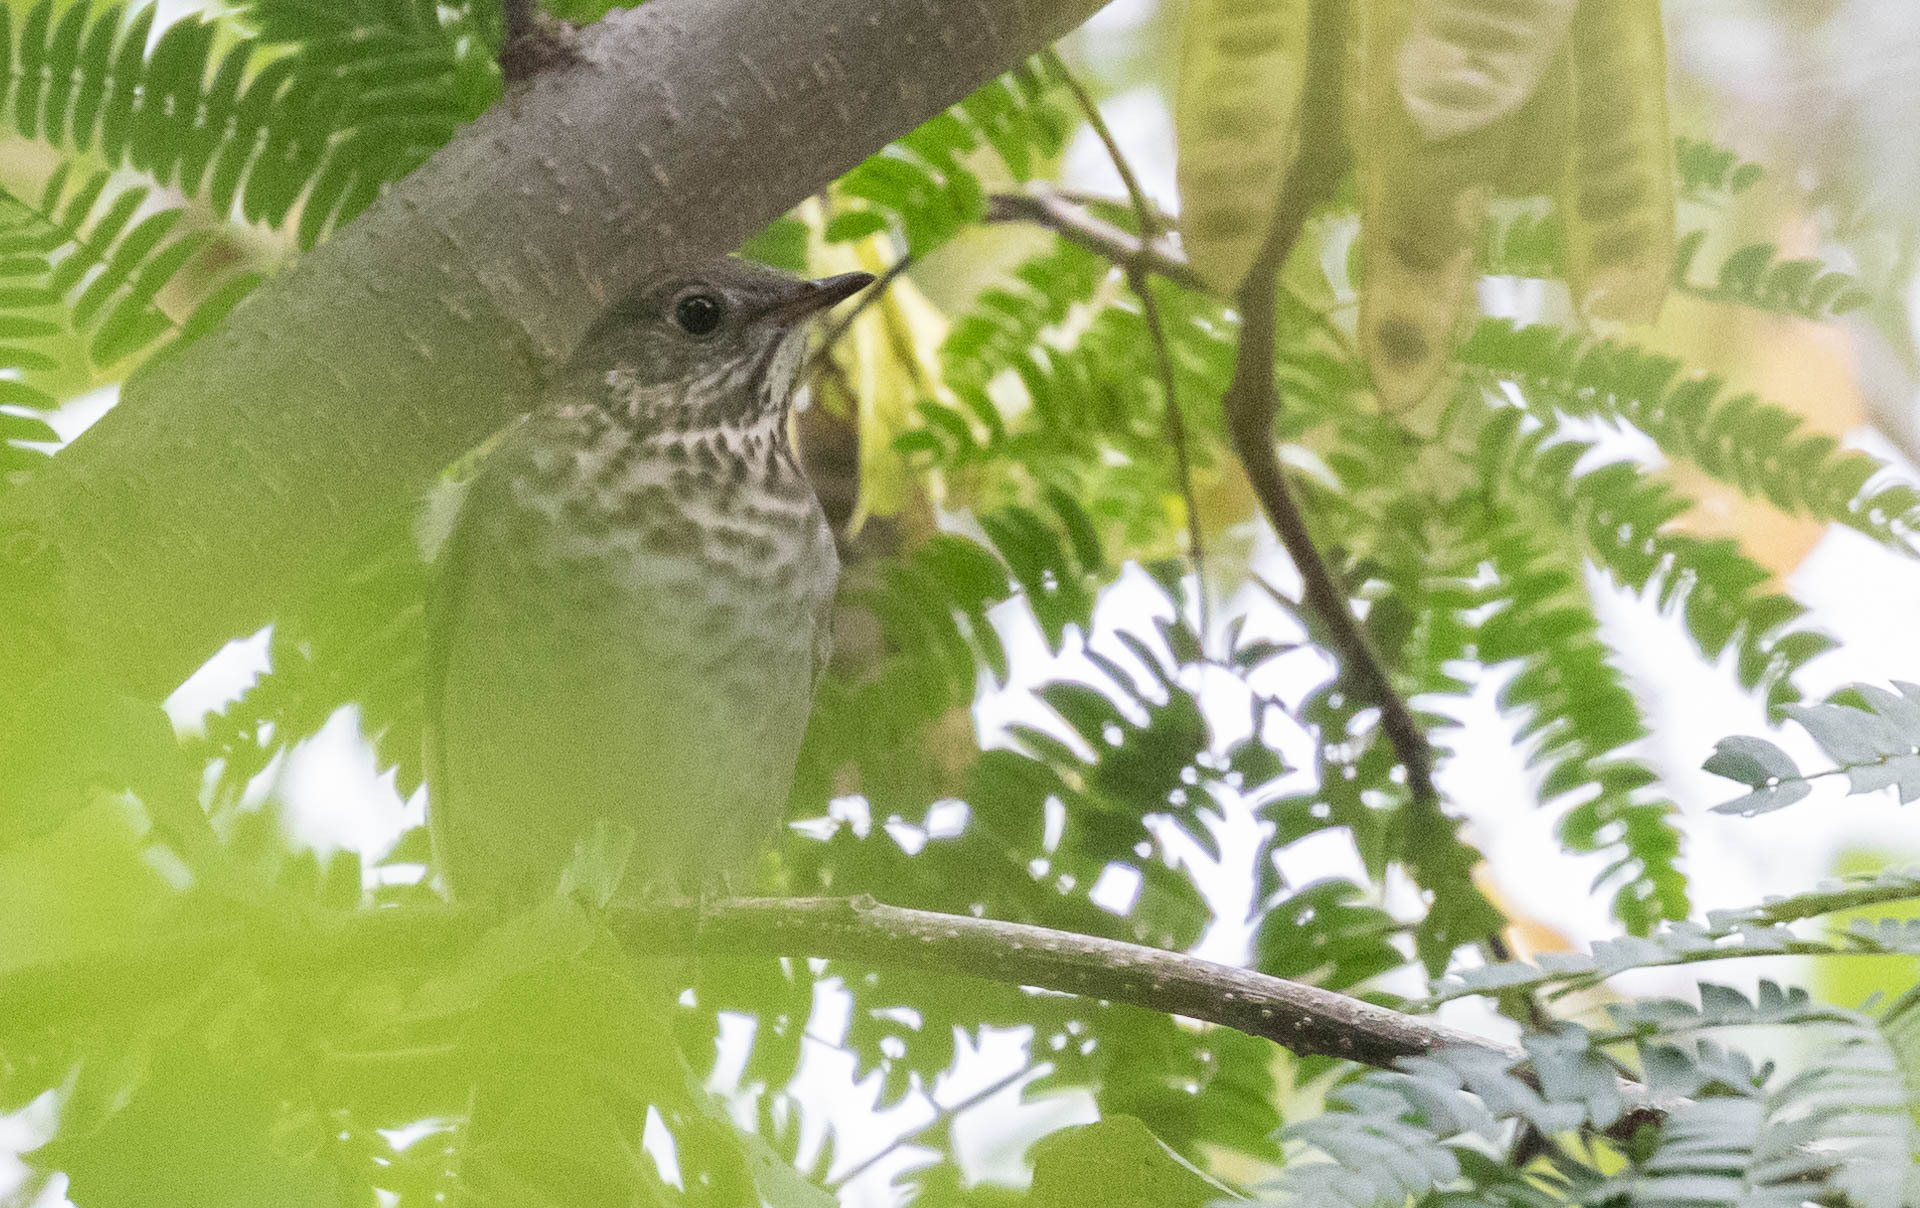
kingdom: Animalia
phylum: Chordata
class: Aves
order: Passeriformes
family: Turdidae
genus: Catharus
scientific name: Catharus minimus
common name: Grey-cheeked thrush
